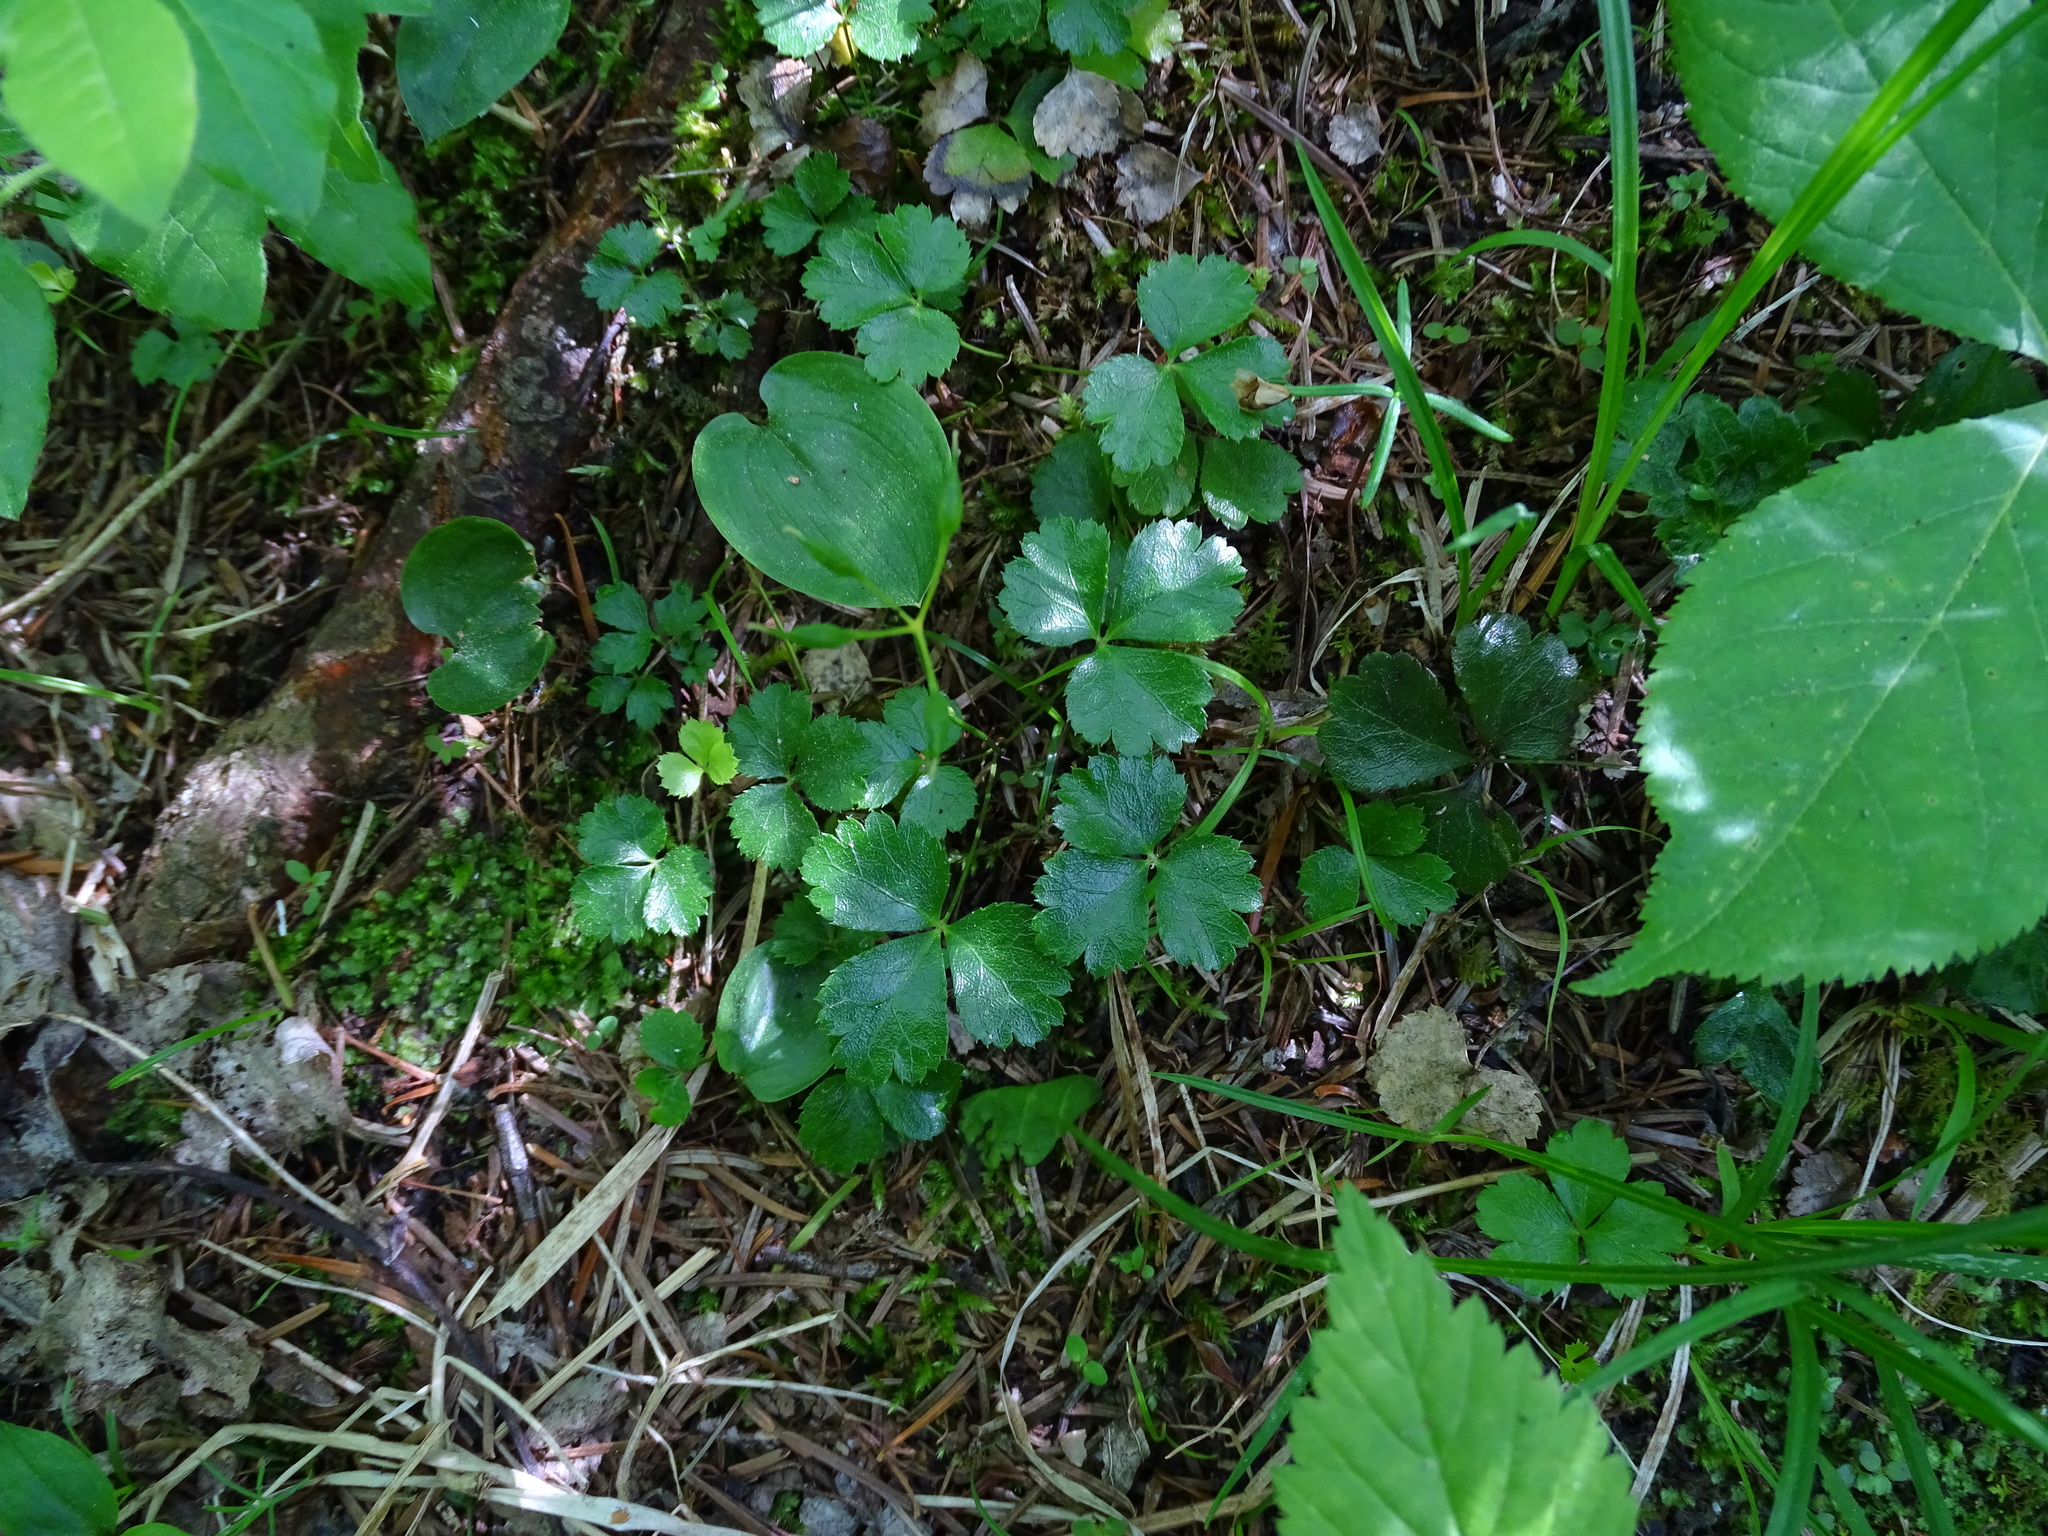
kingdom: Plantae
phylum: Tracheophyta
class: Magnoliopsida
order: Ranunculales
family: Ranunculaceae
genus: Coptis
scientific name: Coptis trifolia
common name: Canker-root
